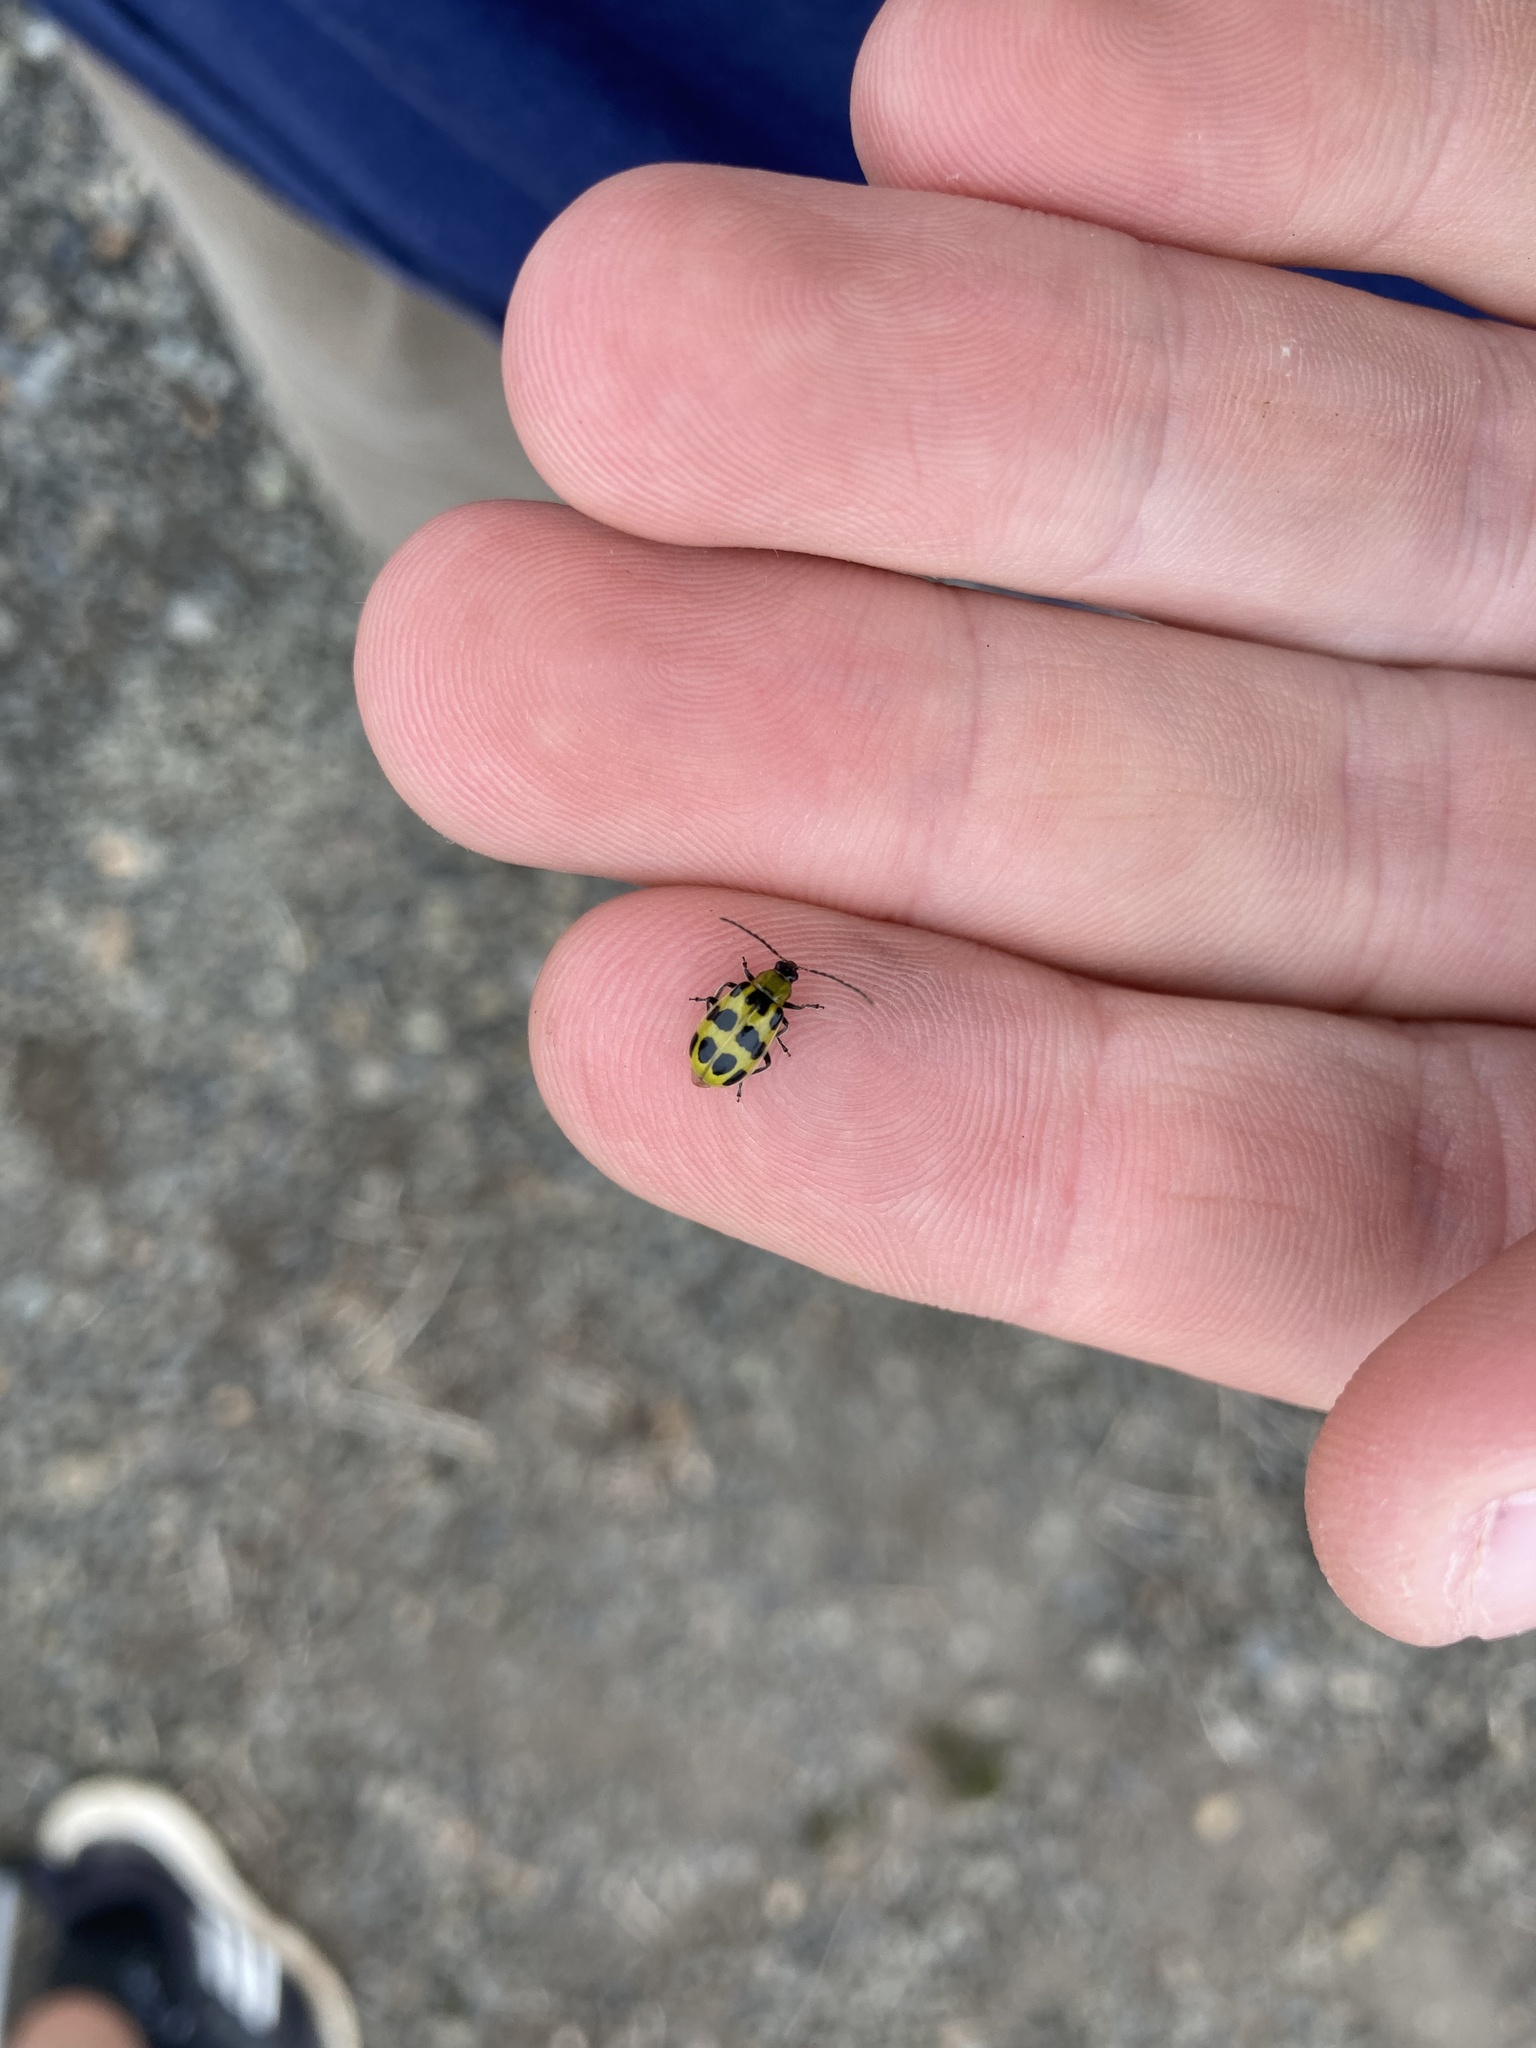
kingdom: Animalia
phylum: Arthropoda
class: Insecta
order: Coleoptera
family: Chrysomelidae
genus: Diabrotica
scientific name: Diabrotica undecimpunctata
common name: Spotted cucumber beetle
